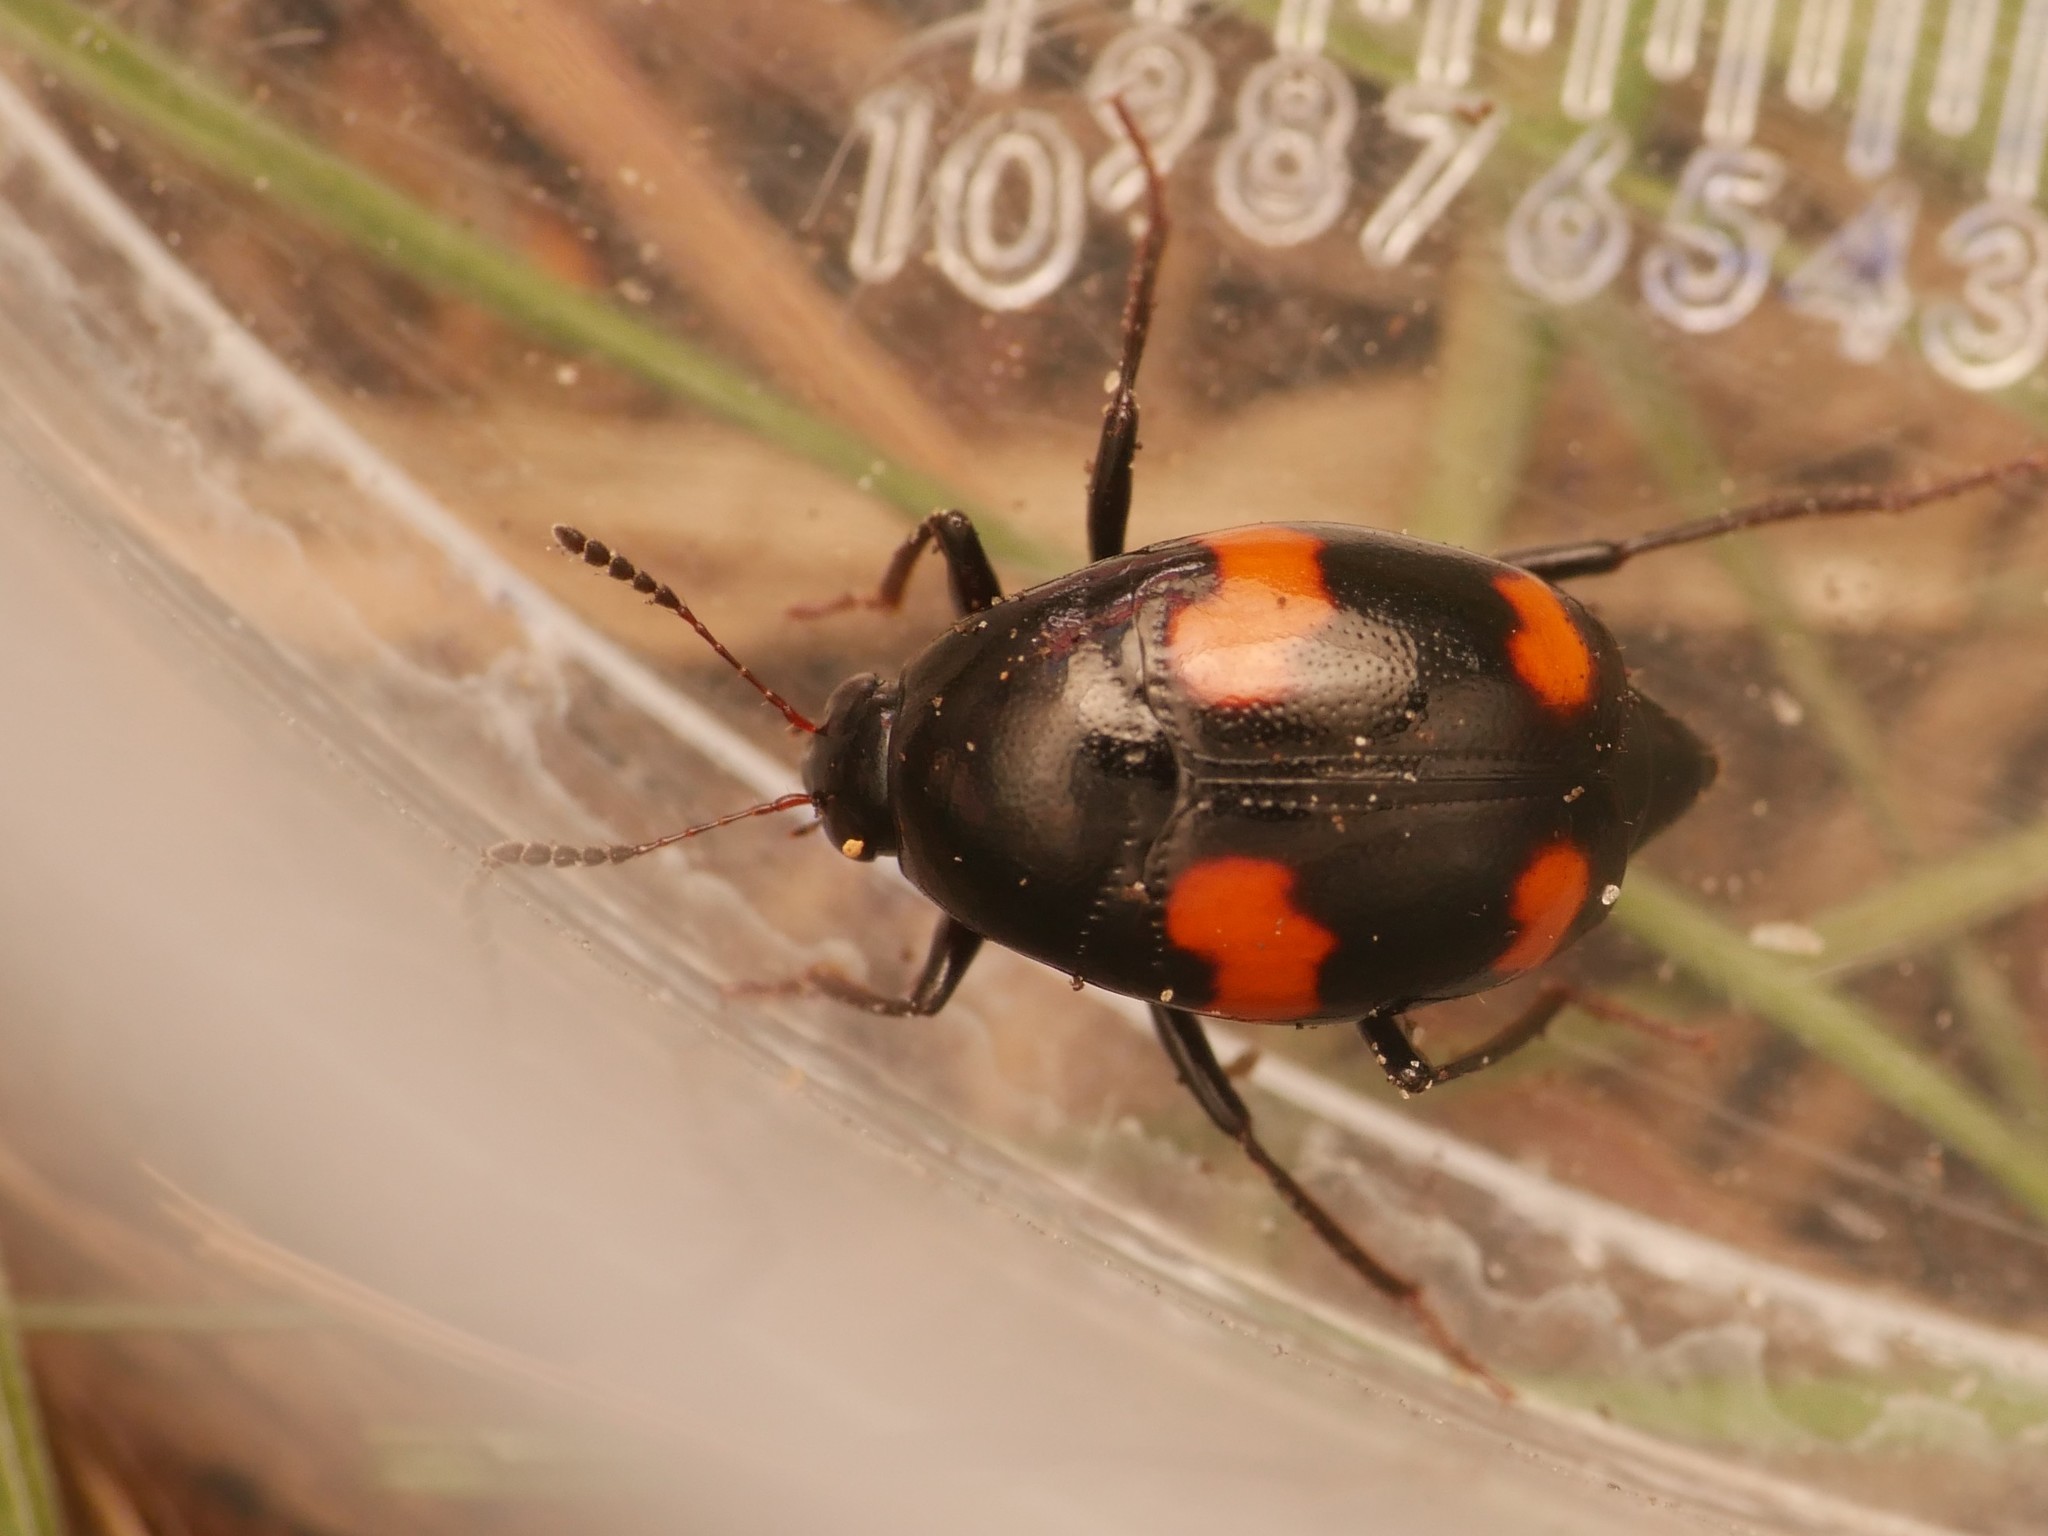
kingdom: Animalia
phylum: Arthropoda
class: Insecta
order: Coleoptera
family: Staphylinidae
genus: Scaphidium
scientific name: Scaphidium quadrimaculatum
